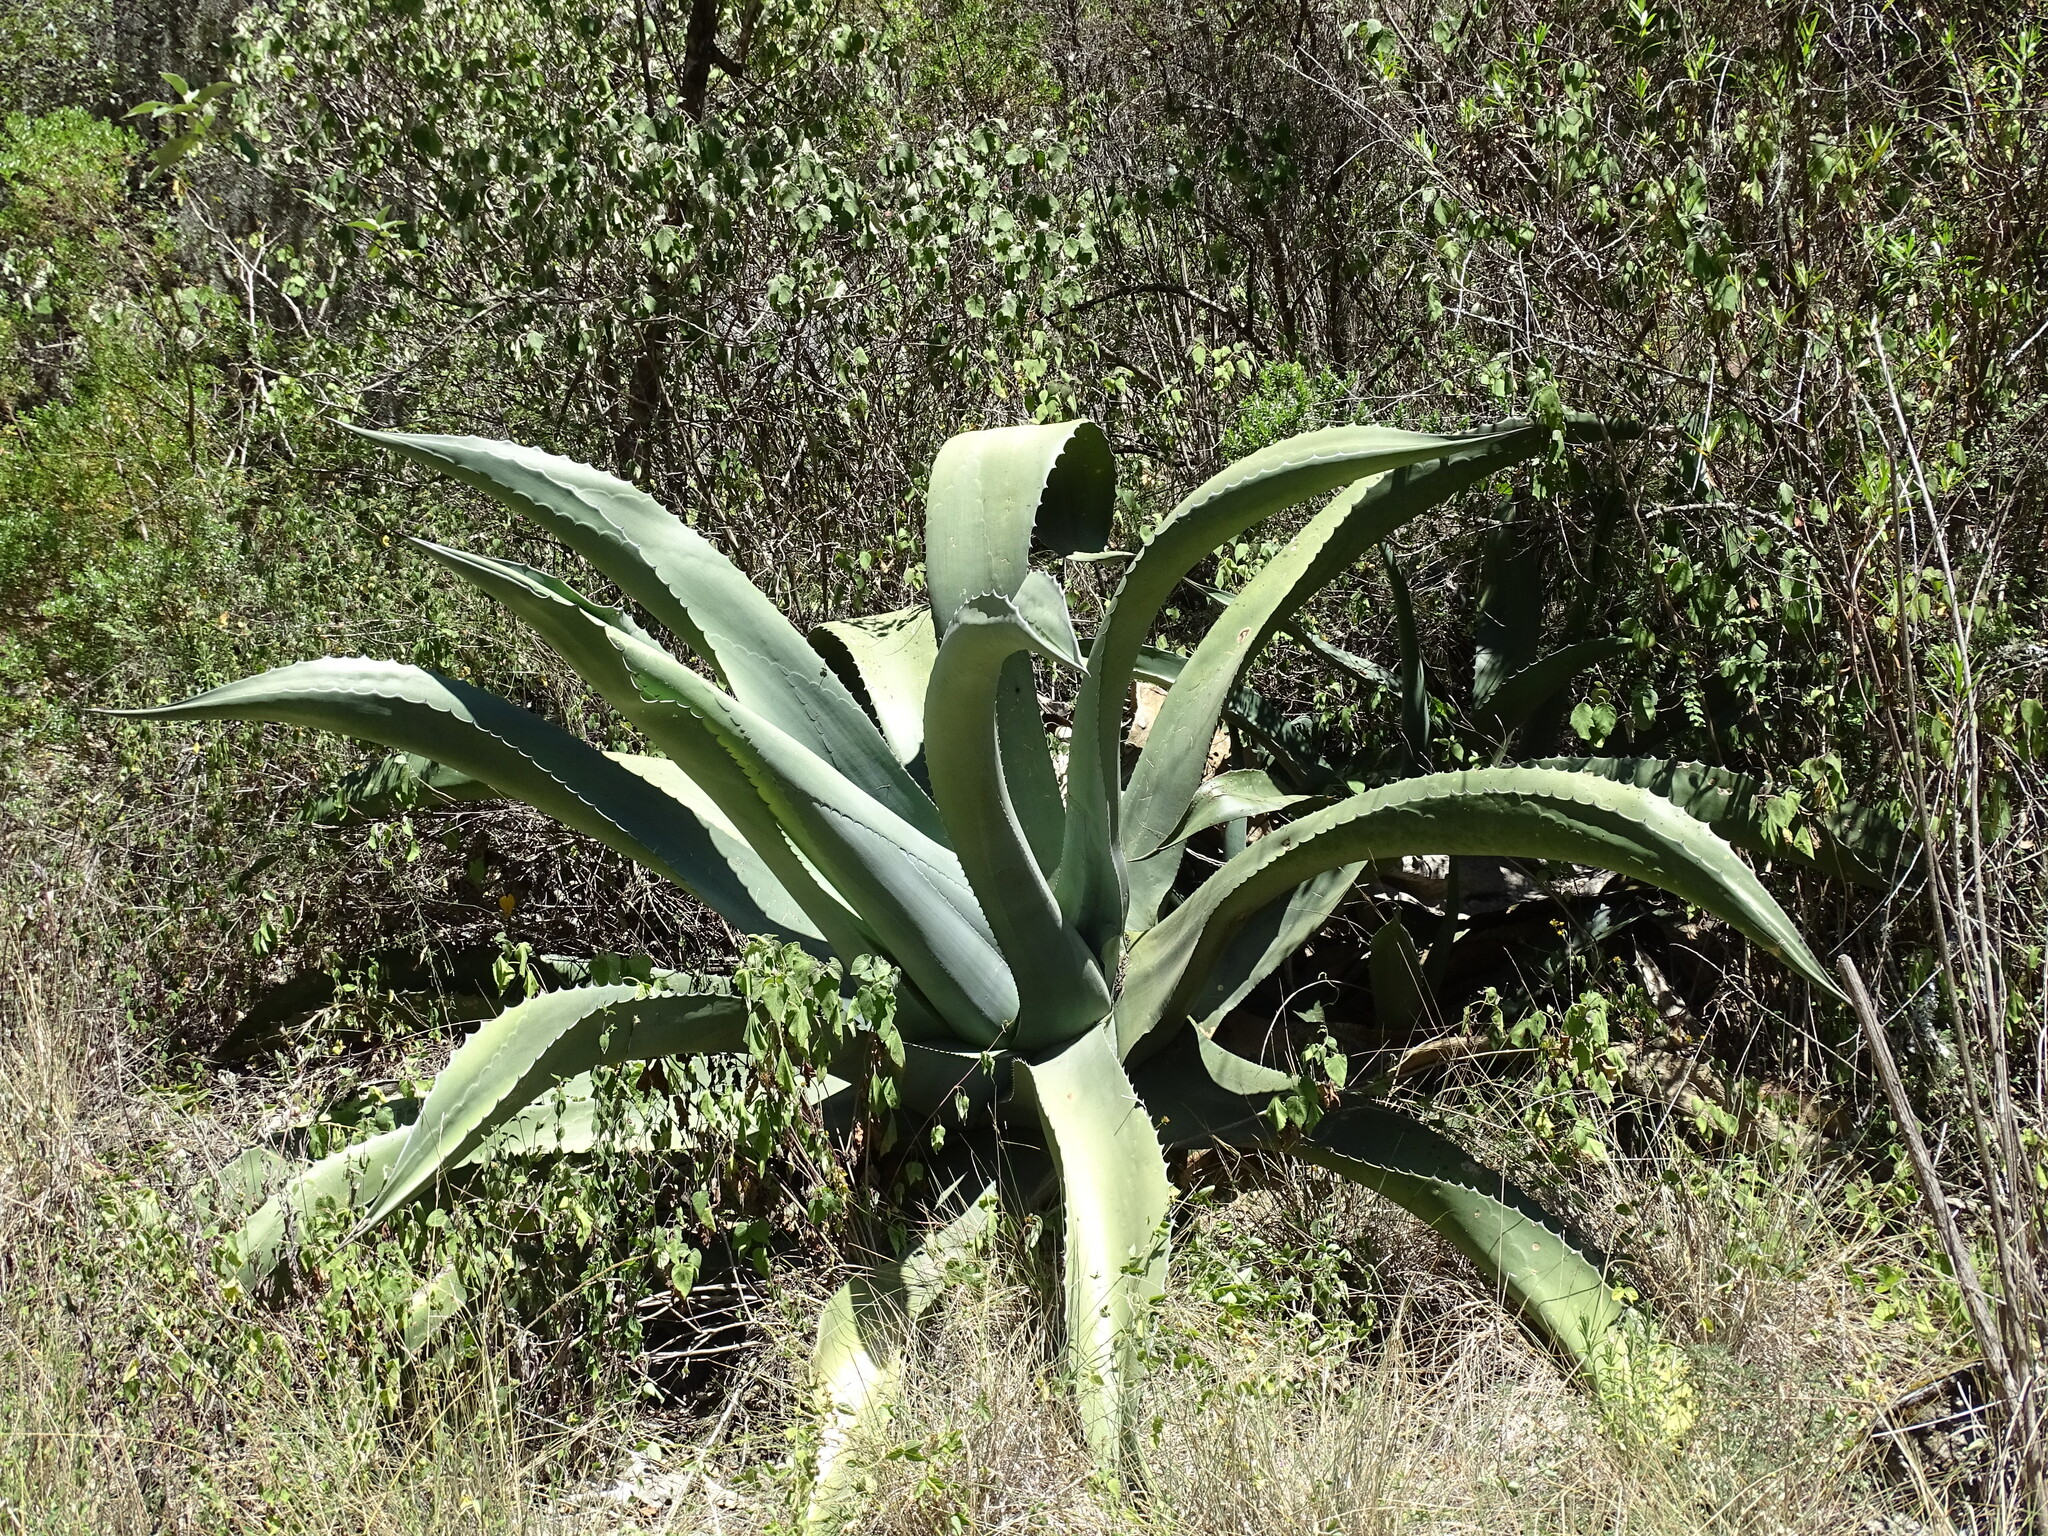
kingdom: Plantae
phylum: Tracheophyta
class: Liliopsida
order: Asparagales
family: Asparagaceae
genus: Agave
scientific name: Agave salmiana
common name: Pulque agave
